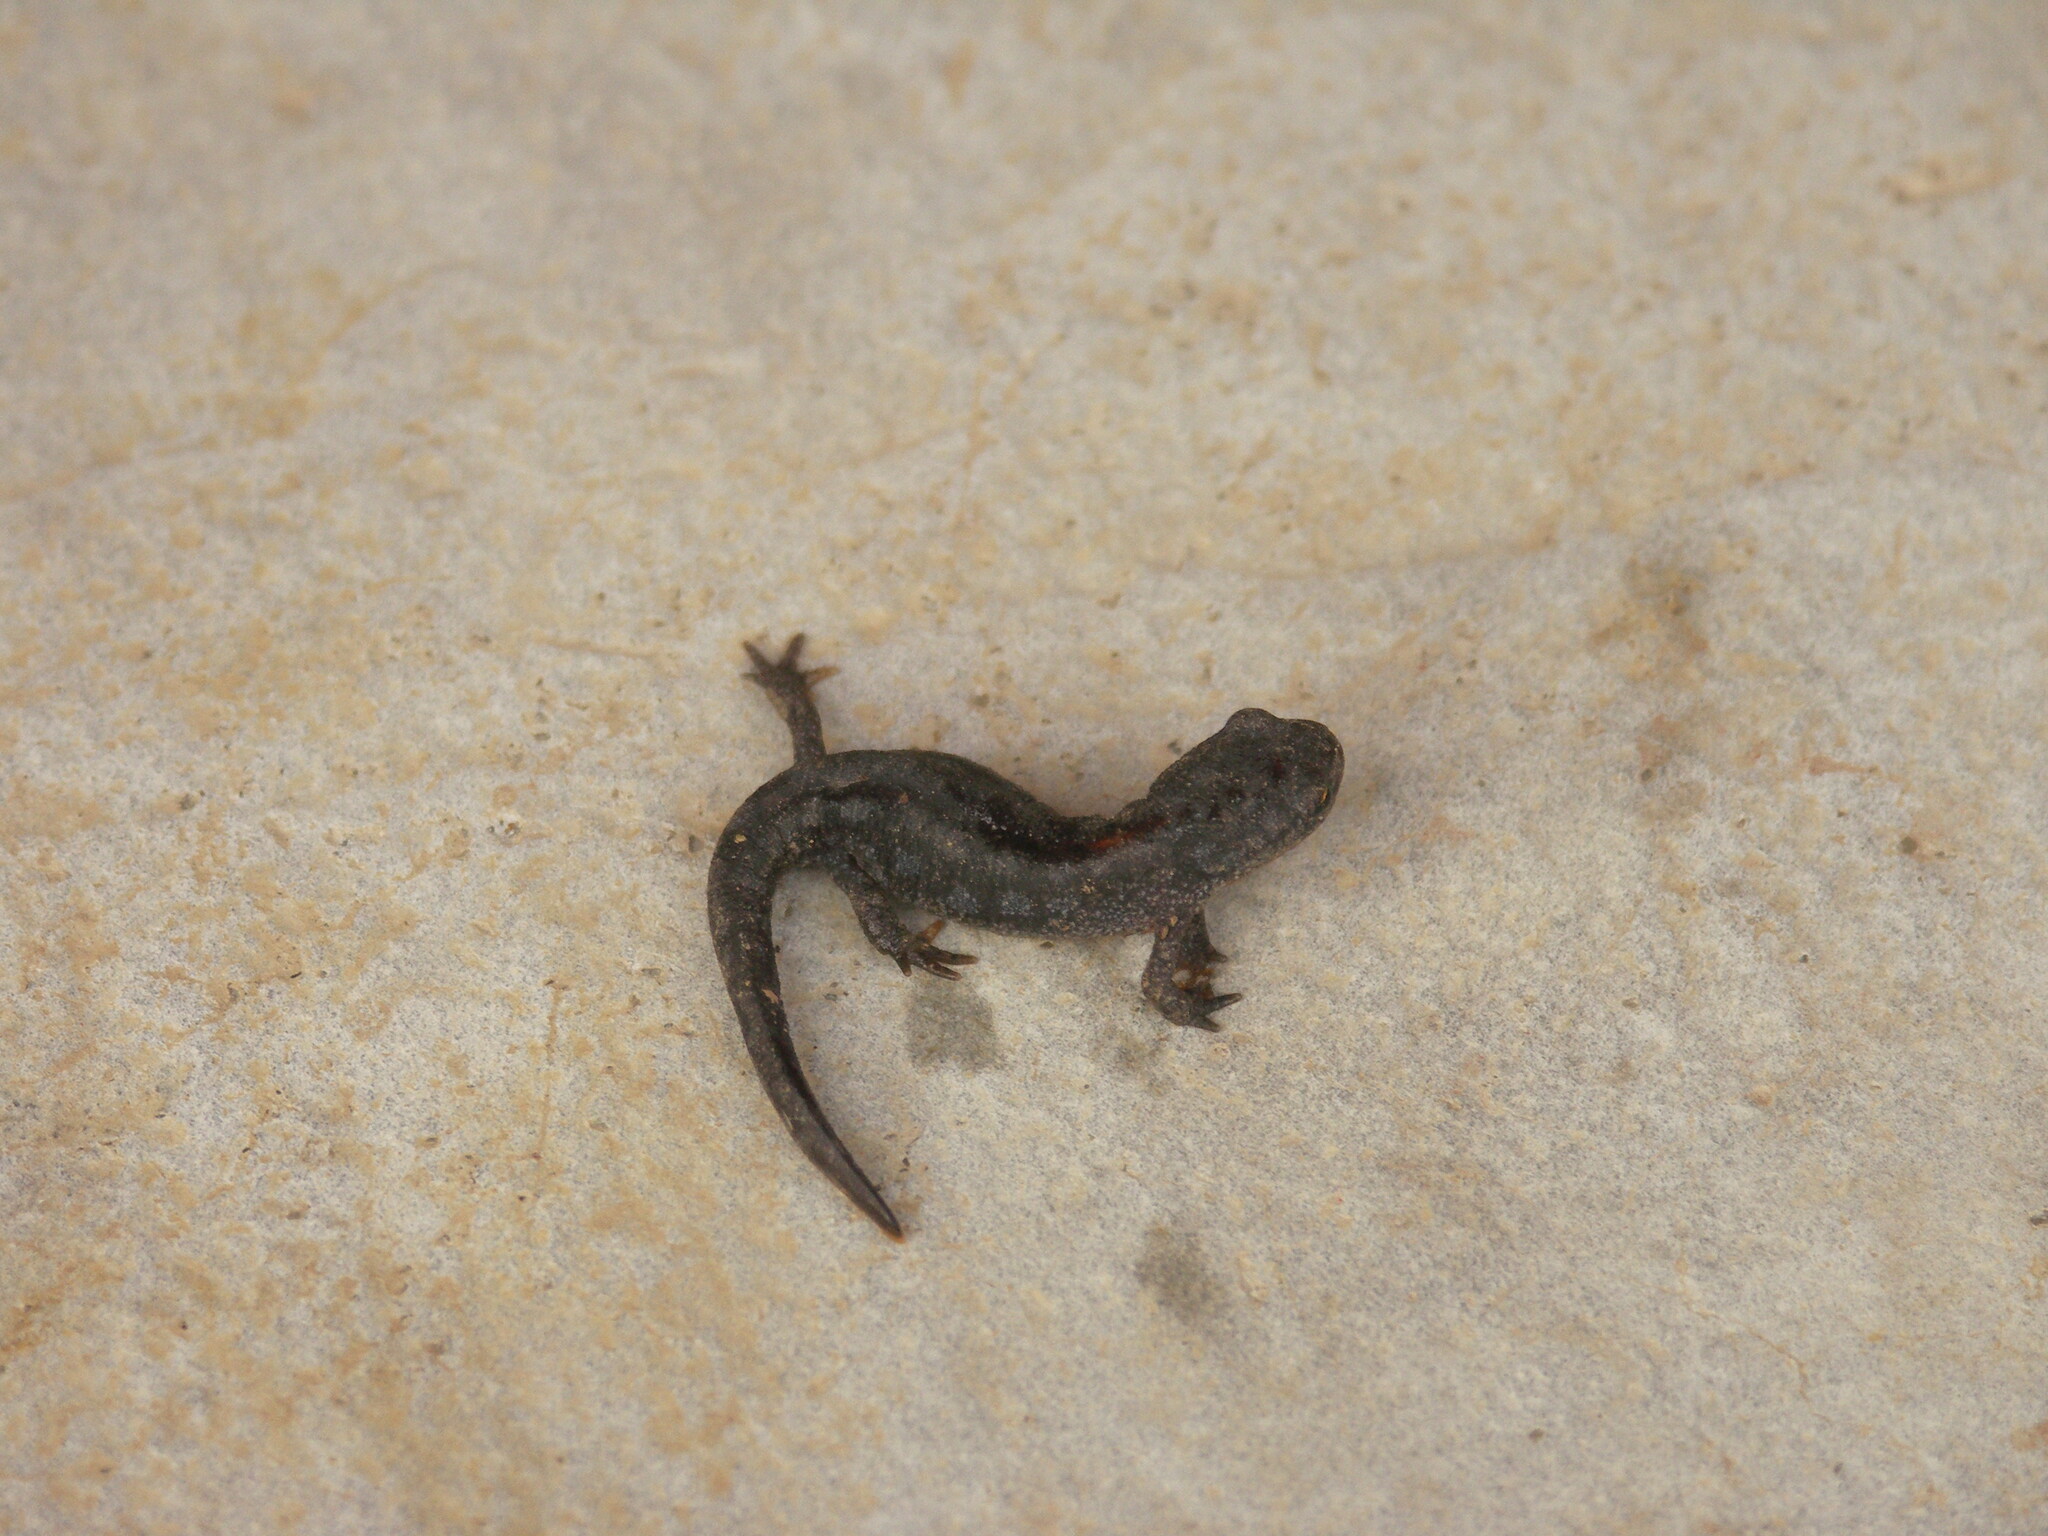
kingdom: Animalia
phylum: Chordata
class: Amphibia
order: Caudata
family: Salamandridae
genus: Ichthyosaura
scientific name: Ichthyosaura alpestris
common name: Alpine newt
